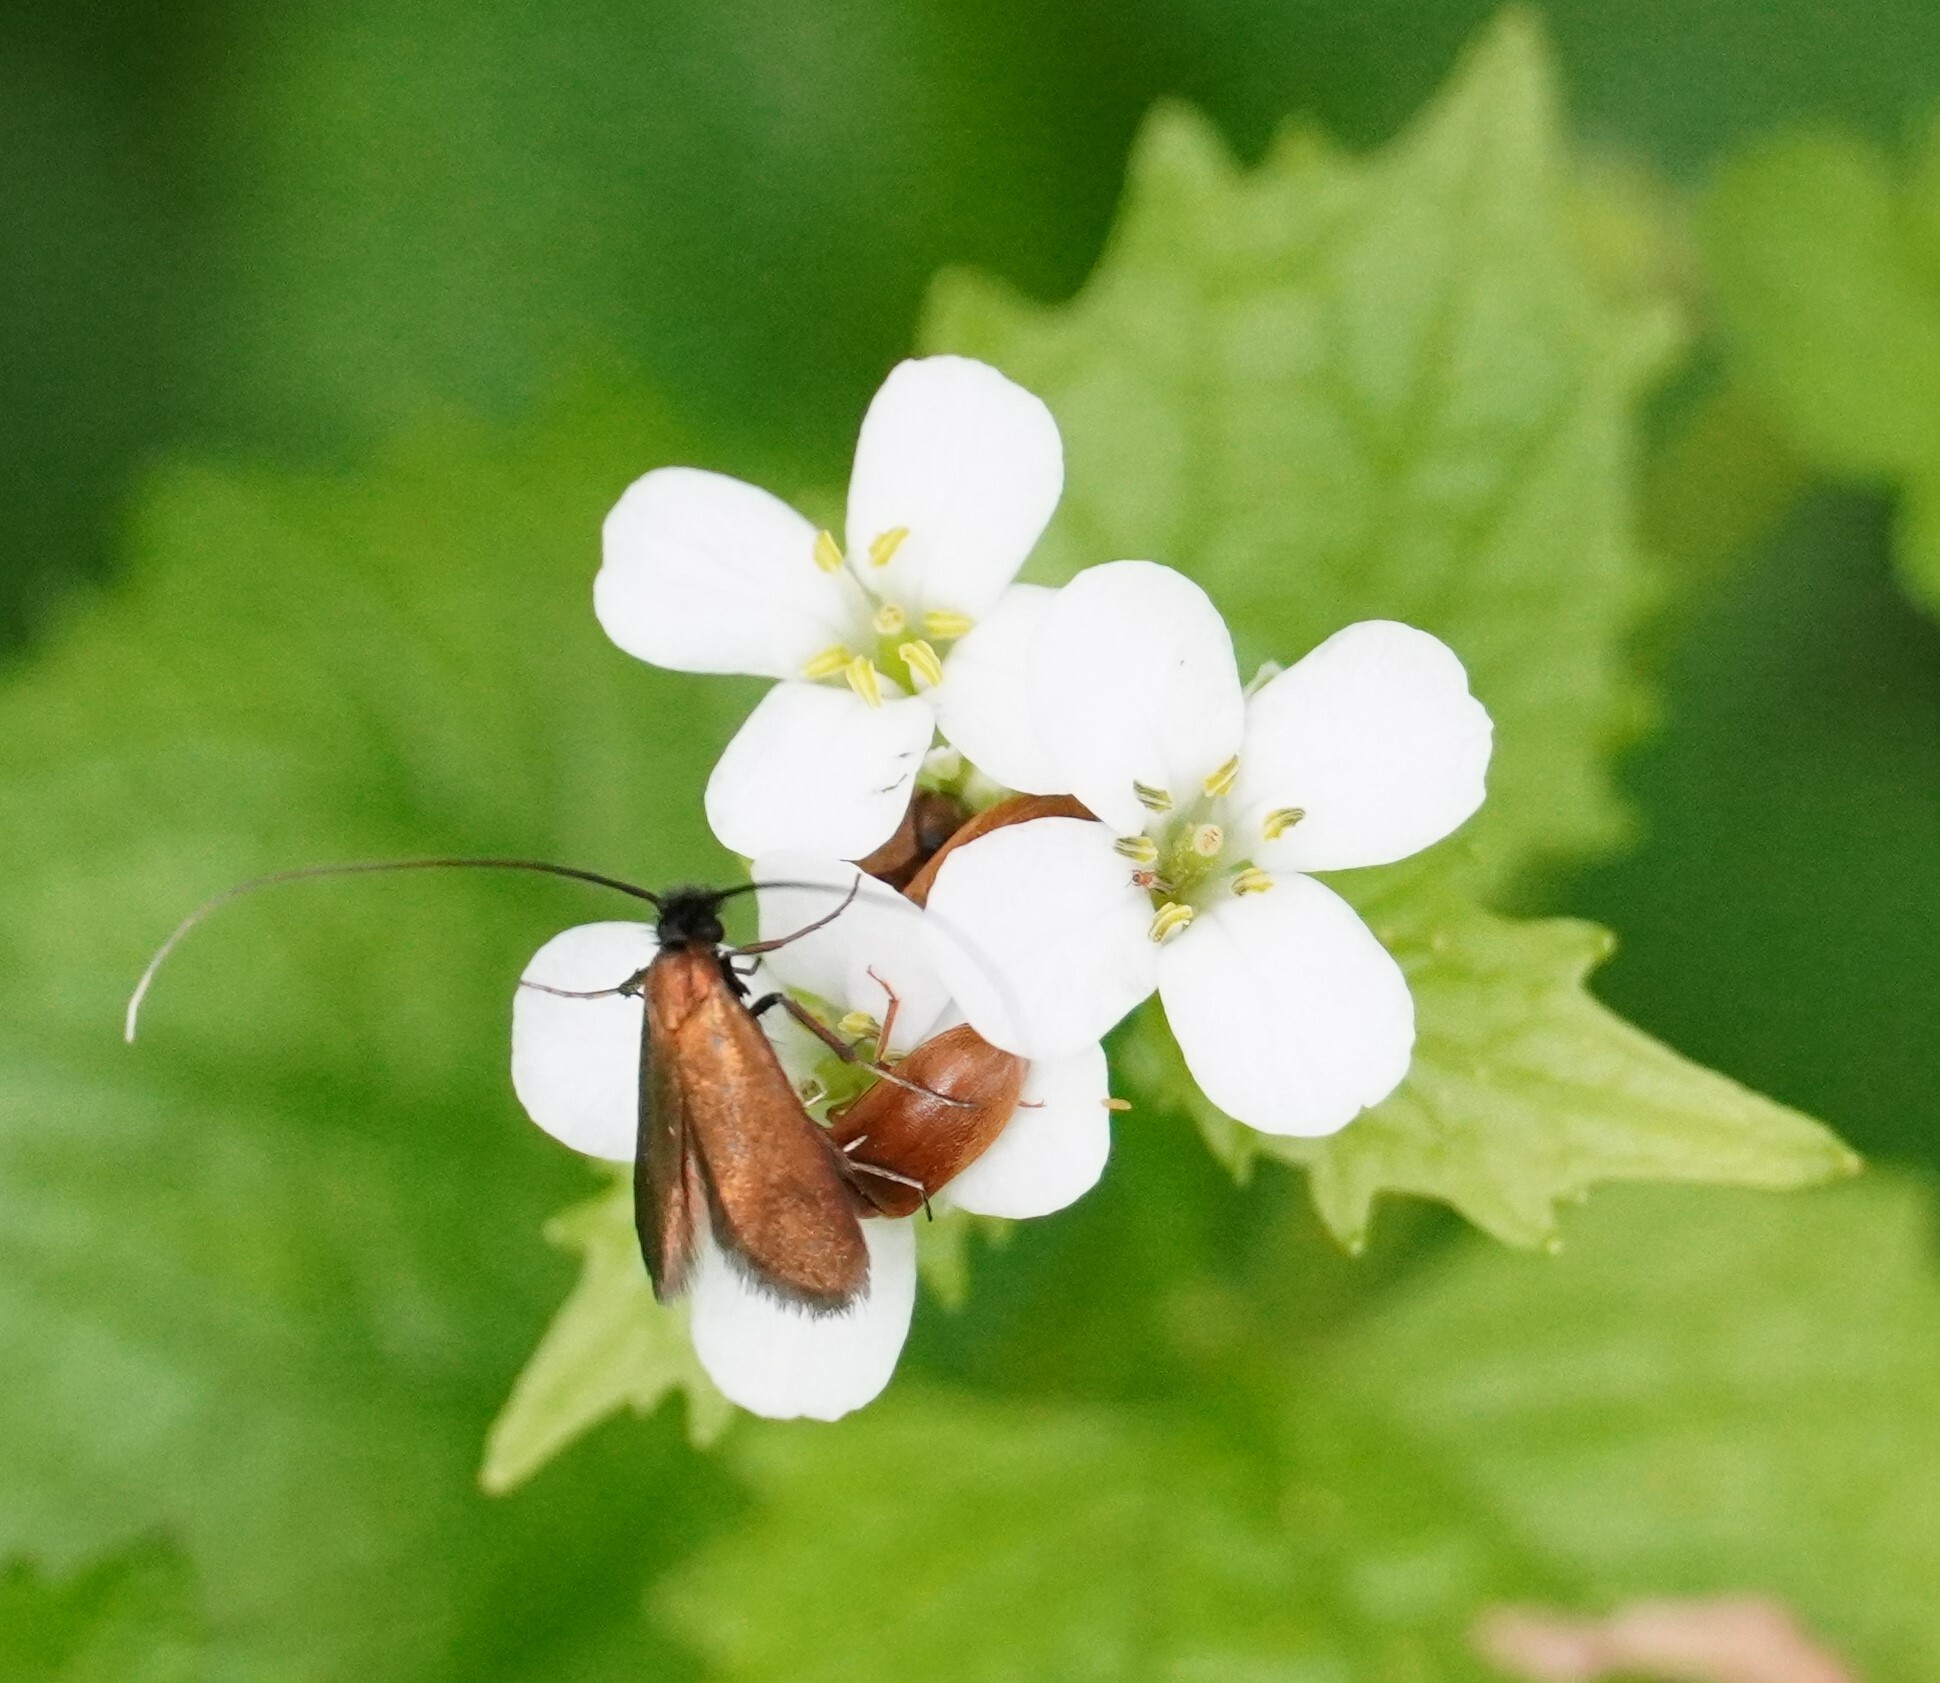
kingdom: Animalia
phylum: Arthropoda
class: Insecta
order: Lepidoptera
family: Adelidae
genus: Cauchas
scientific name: Cauchas rufimitrella
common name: Meadow long-horn
